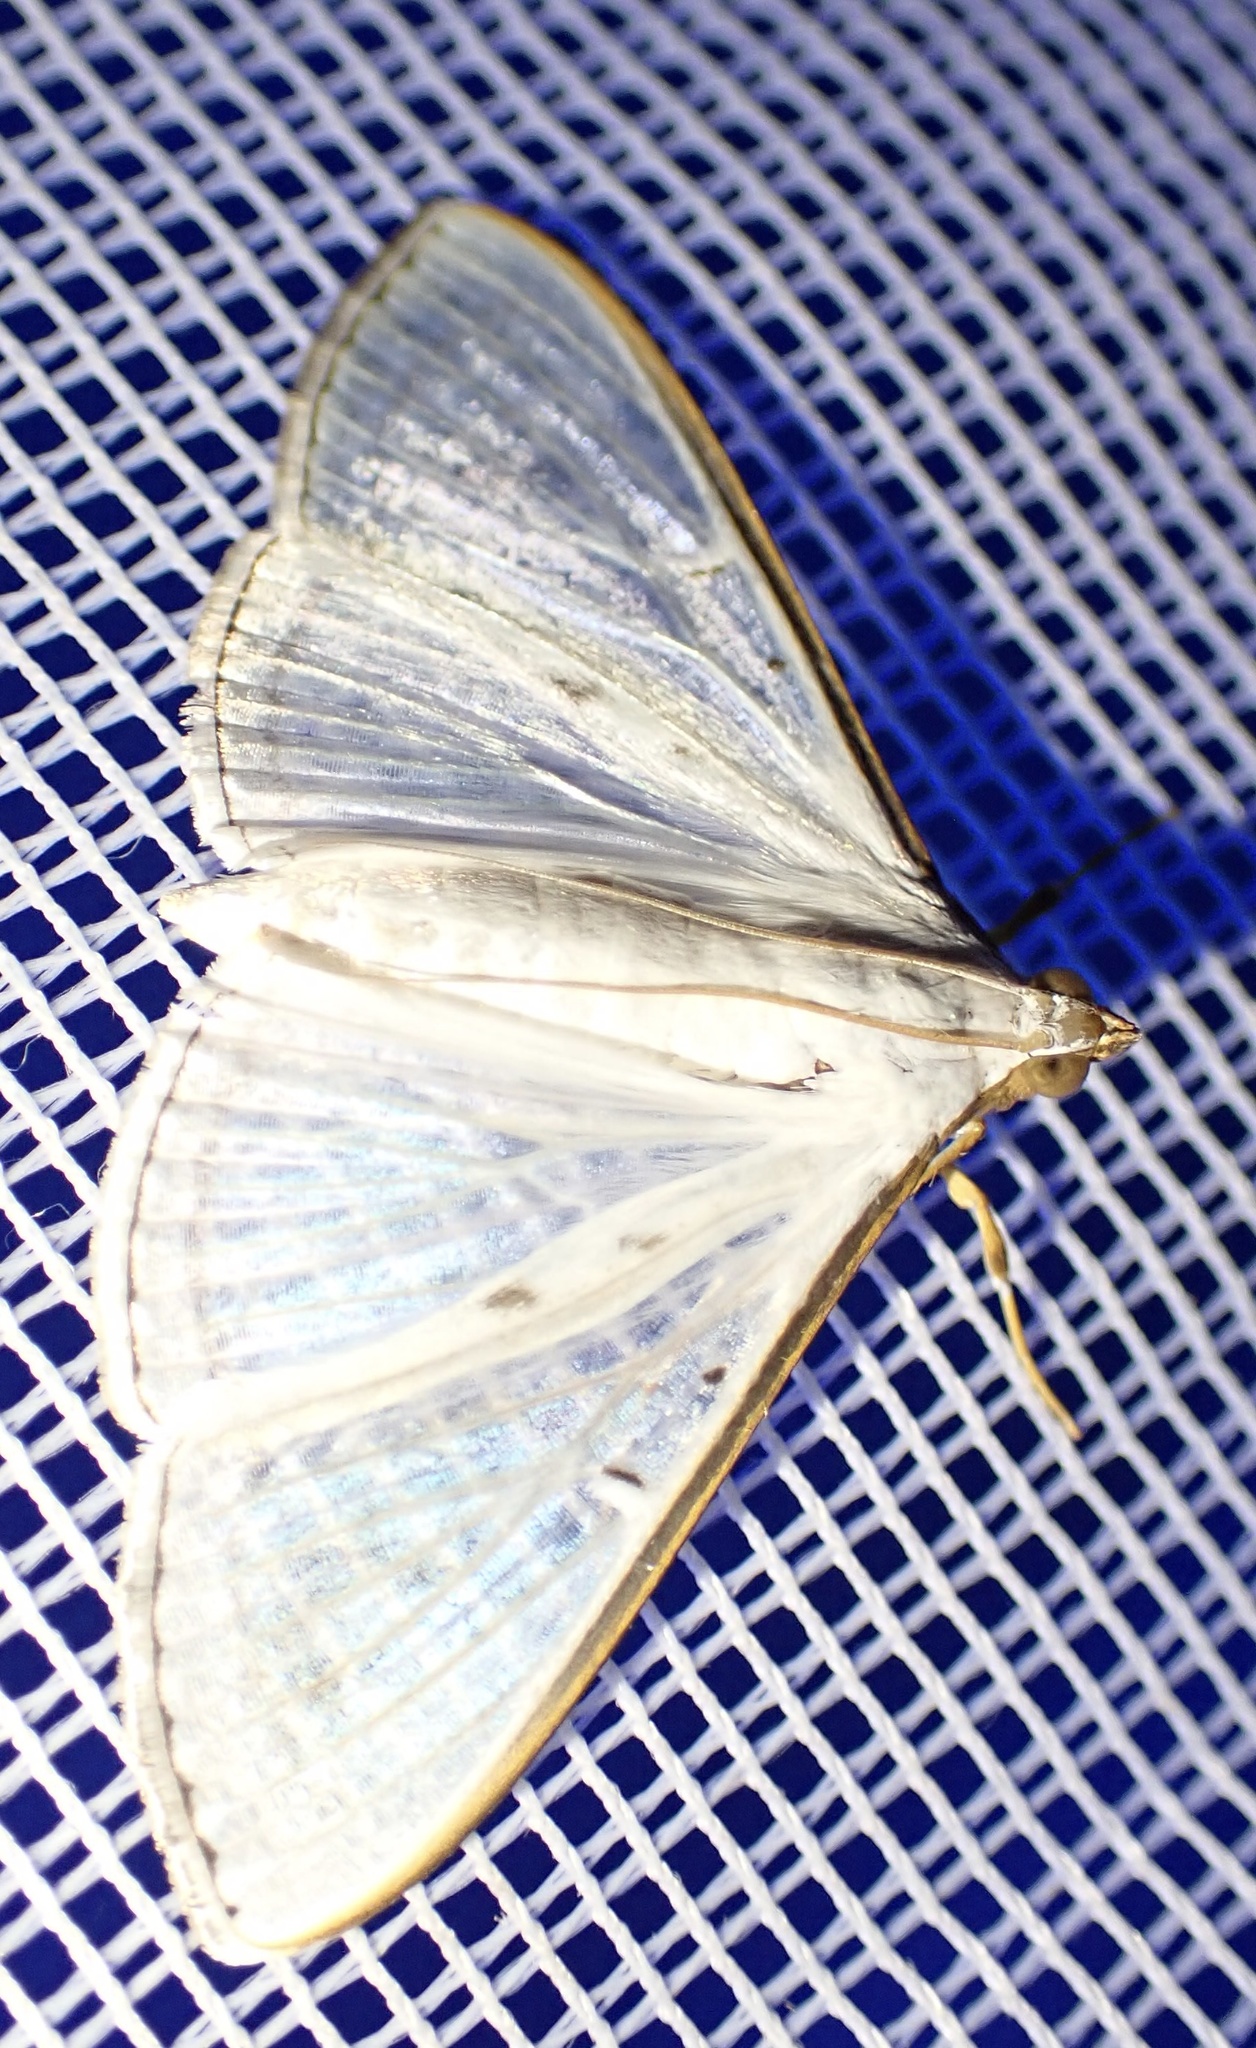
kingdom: Animalia
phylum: Arthropoda
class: Insecta
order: Lepidoptera
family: Crambidae
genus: Palpita
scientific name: Palpita vitrealis
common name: Olive-tree pearl
